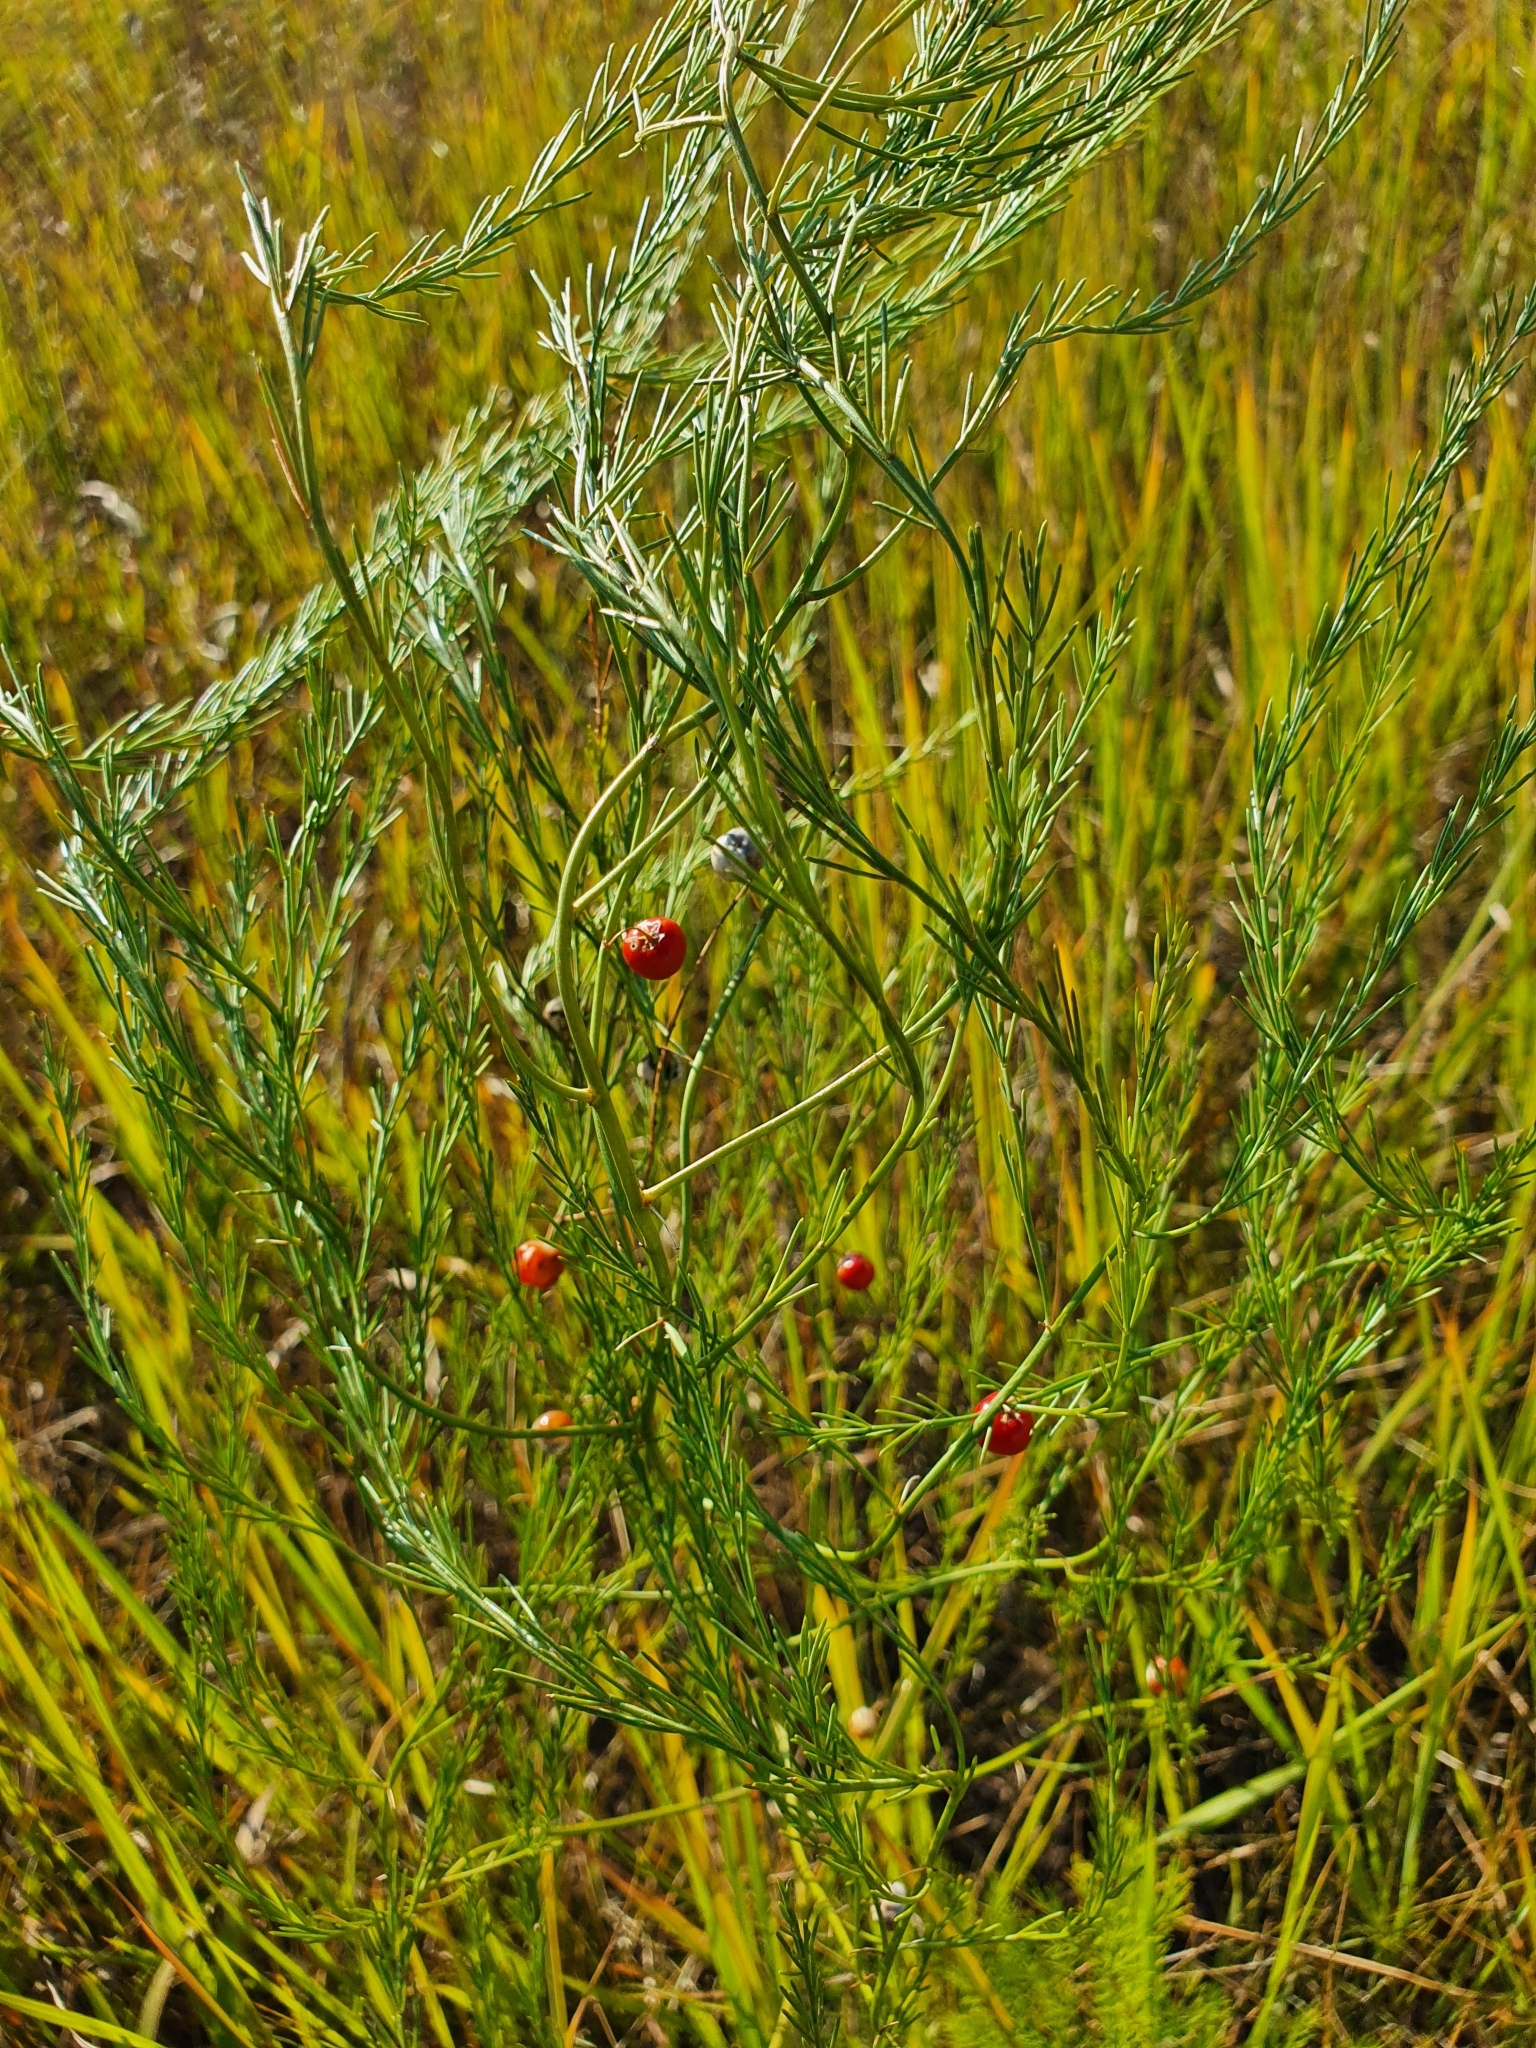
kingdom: Plantae
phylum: Tracheophyta
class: Liliopsida
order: Asparagales
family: Asparagaceae
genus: Asparagus
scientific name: Asparagus officinalis
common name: Garden asparagus
